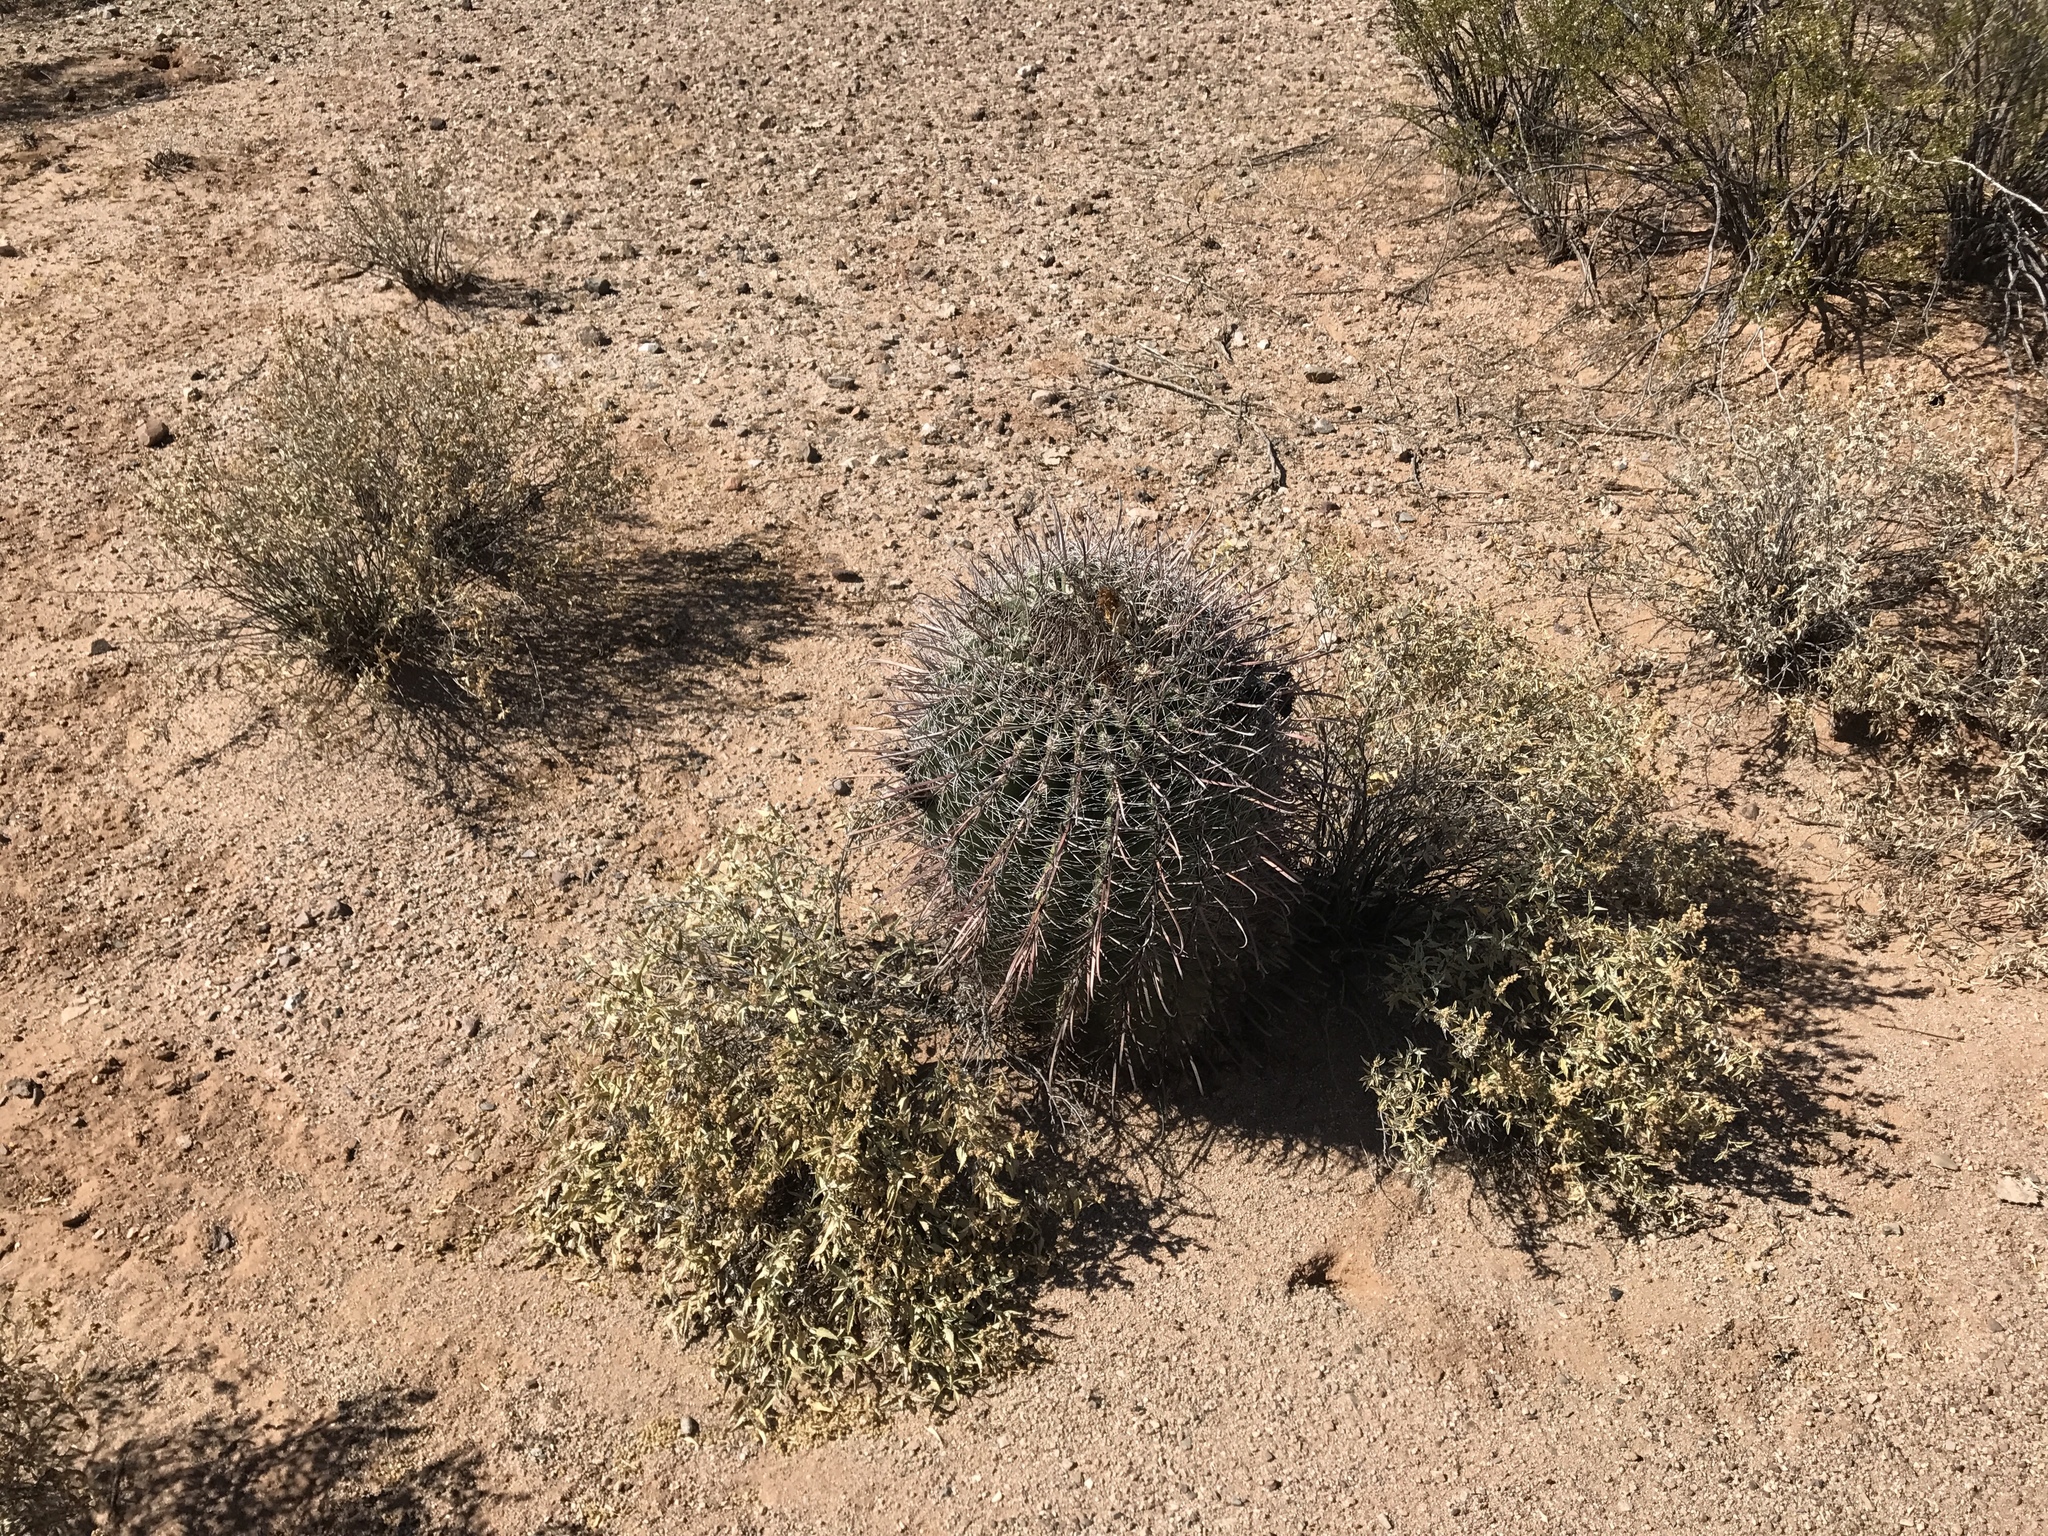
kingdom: Plantae
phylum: Tracheophyta
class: Magnoliopsida
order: Caryophyllales
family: Cactaceae
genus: Ferocactus
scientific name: Ferocactus wislizeni
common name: Candy barrel cactus
